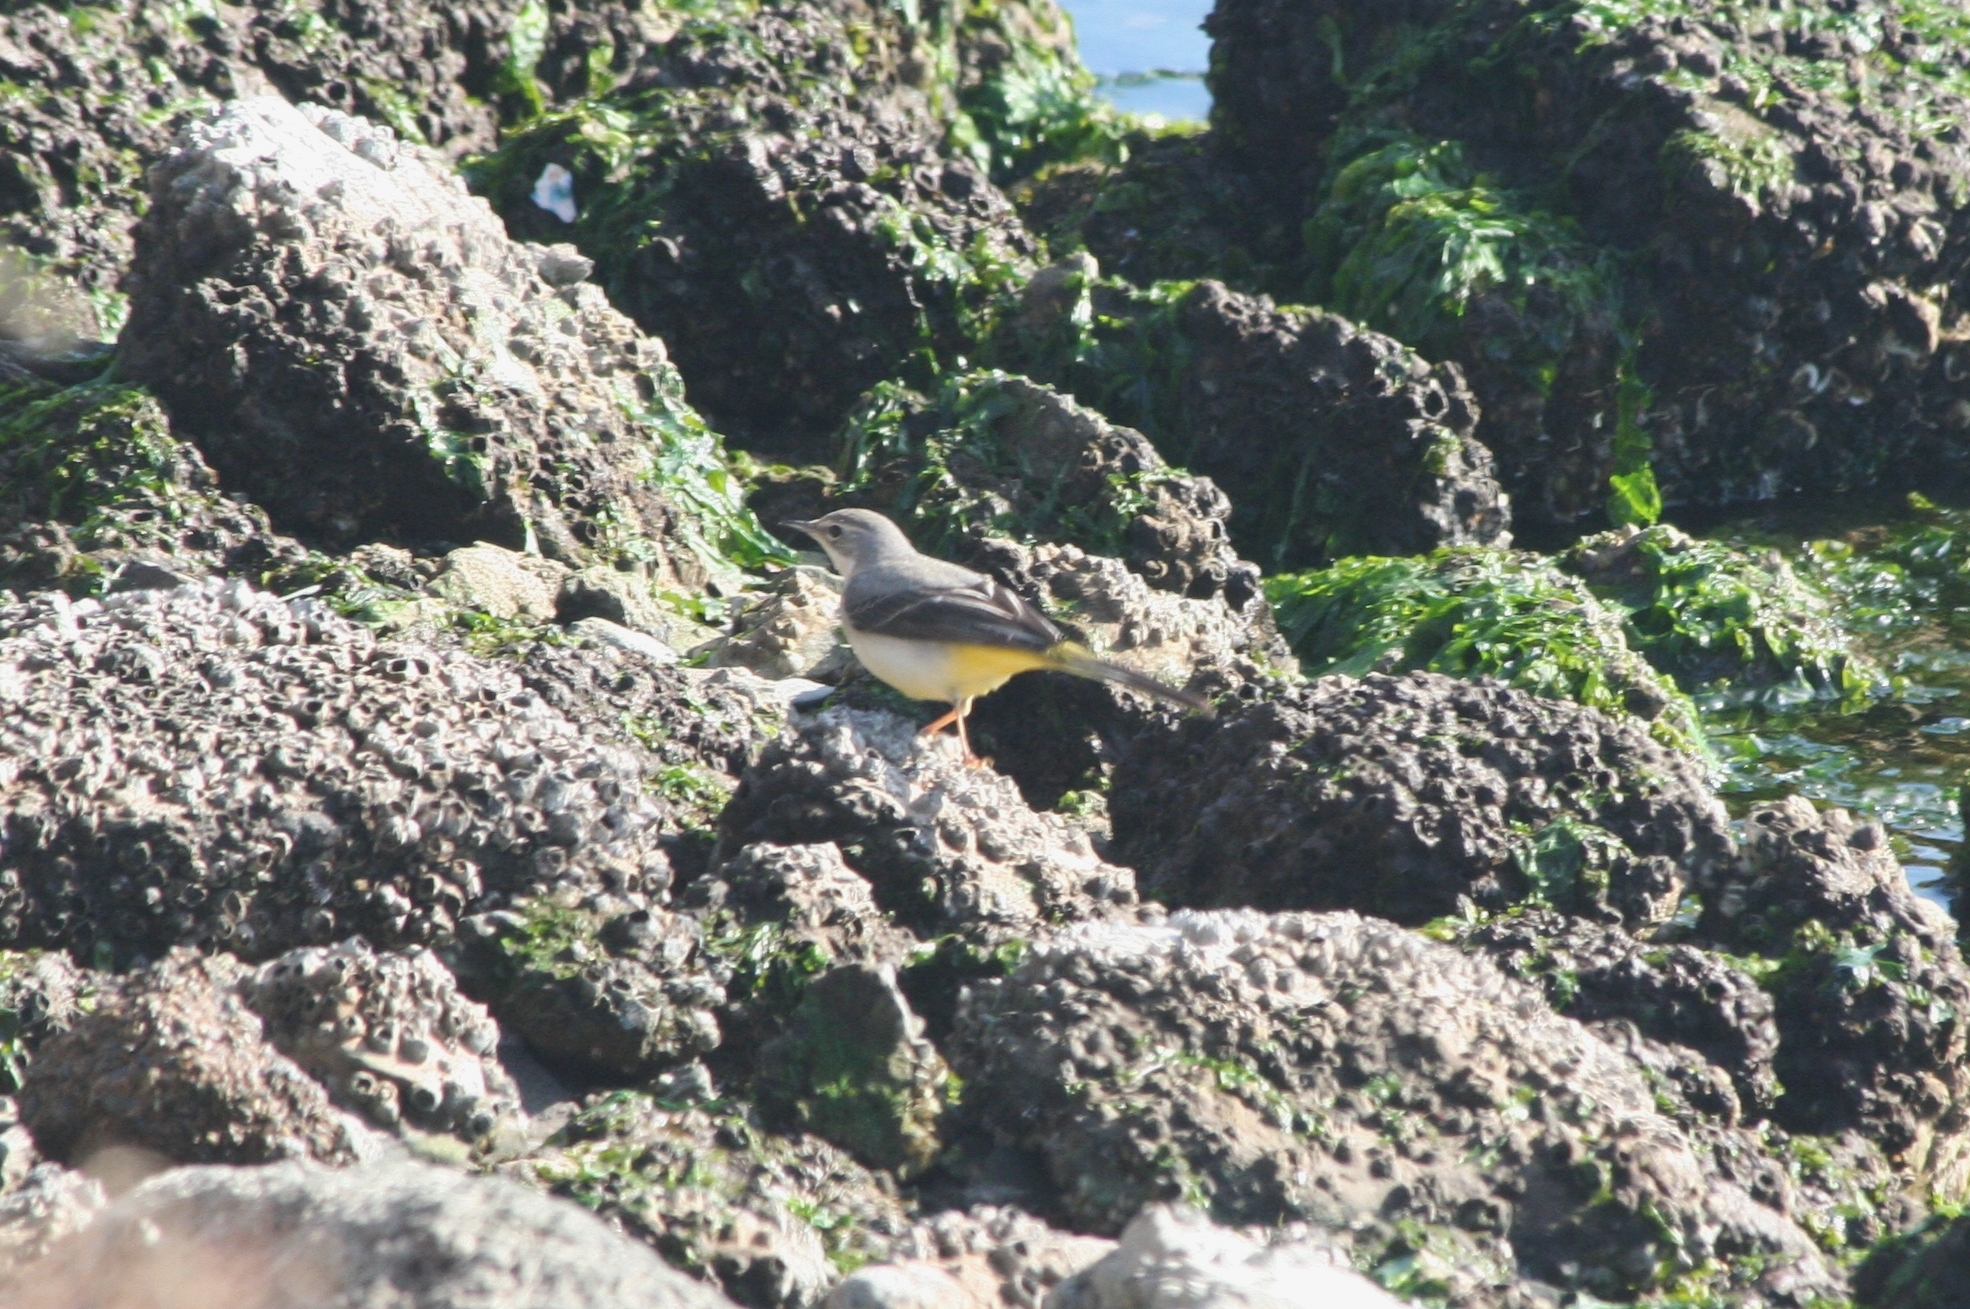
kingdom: Animalia
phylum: Chordata
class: Aves
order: Passeriformes
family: Motacillidae
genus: Motacilla
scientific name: Motacilla cinerea
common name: Grey wagtail
